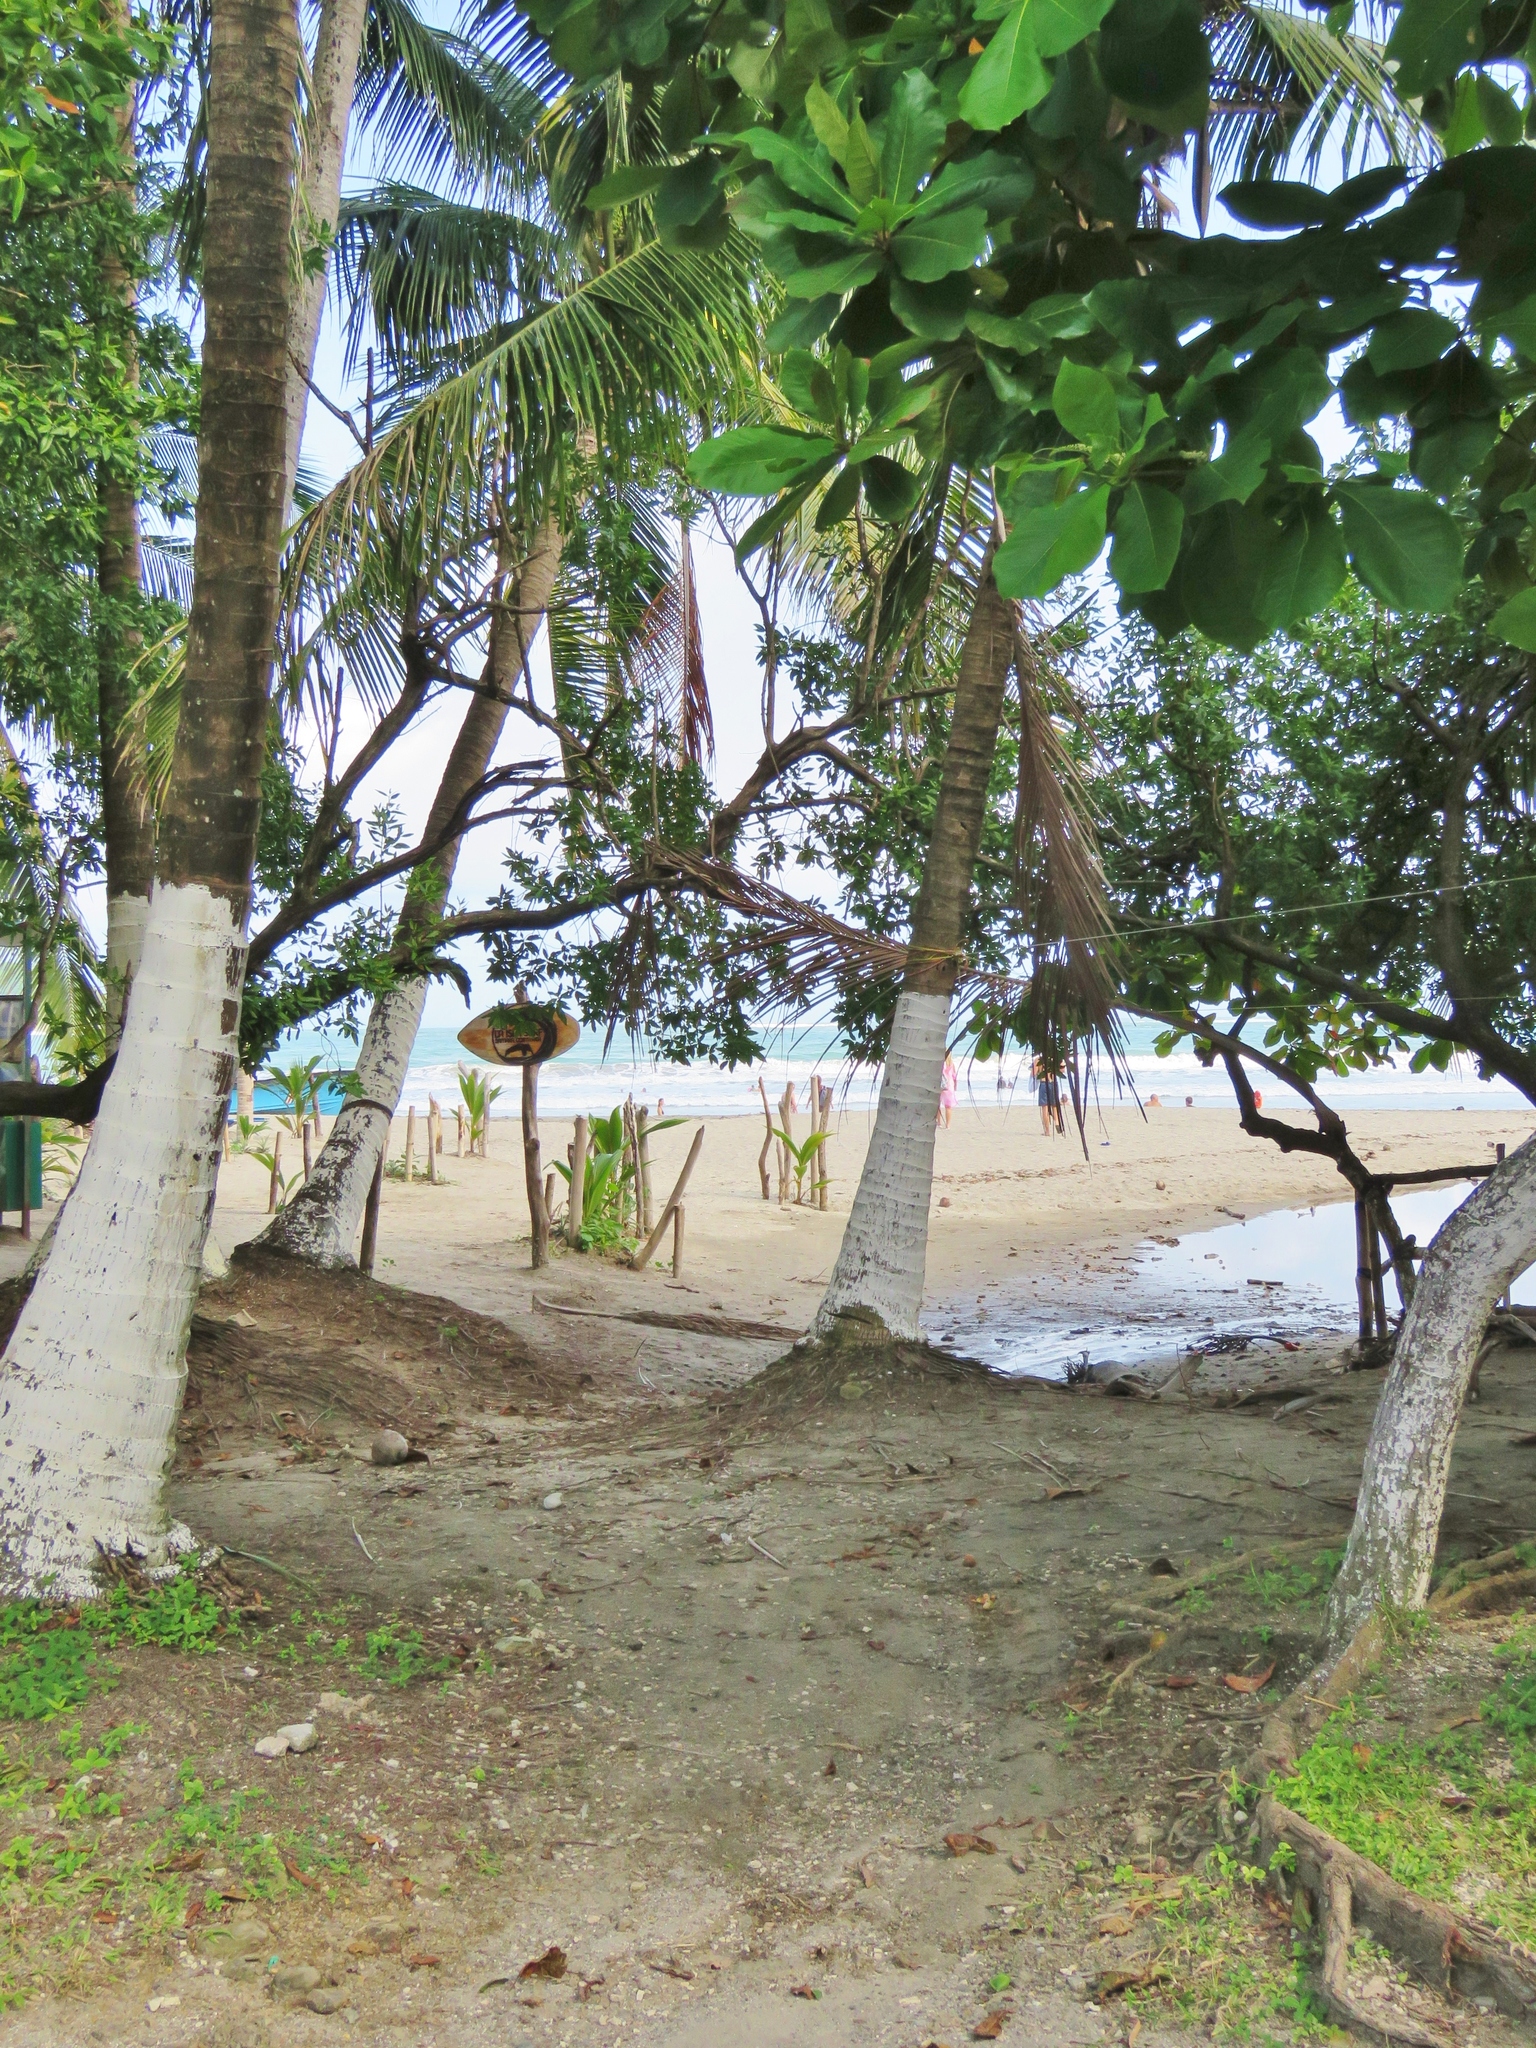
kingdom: Plantae
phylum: Tracheophyta
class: Liliopsida
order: Arecales
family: Arecaceae
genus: Cocos
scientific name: Cocos nucifera
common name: Coconut palm
